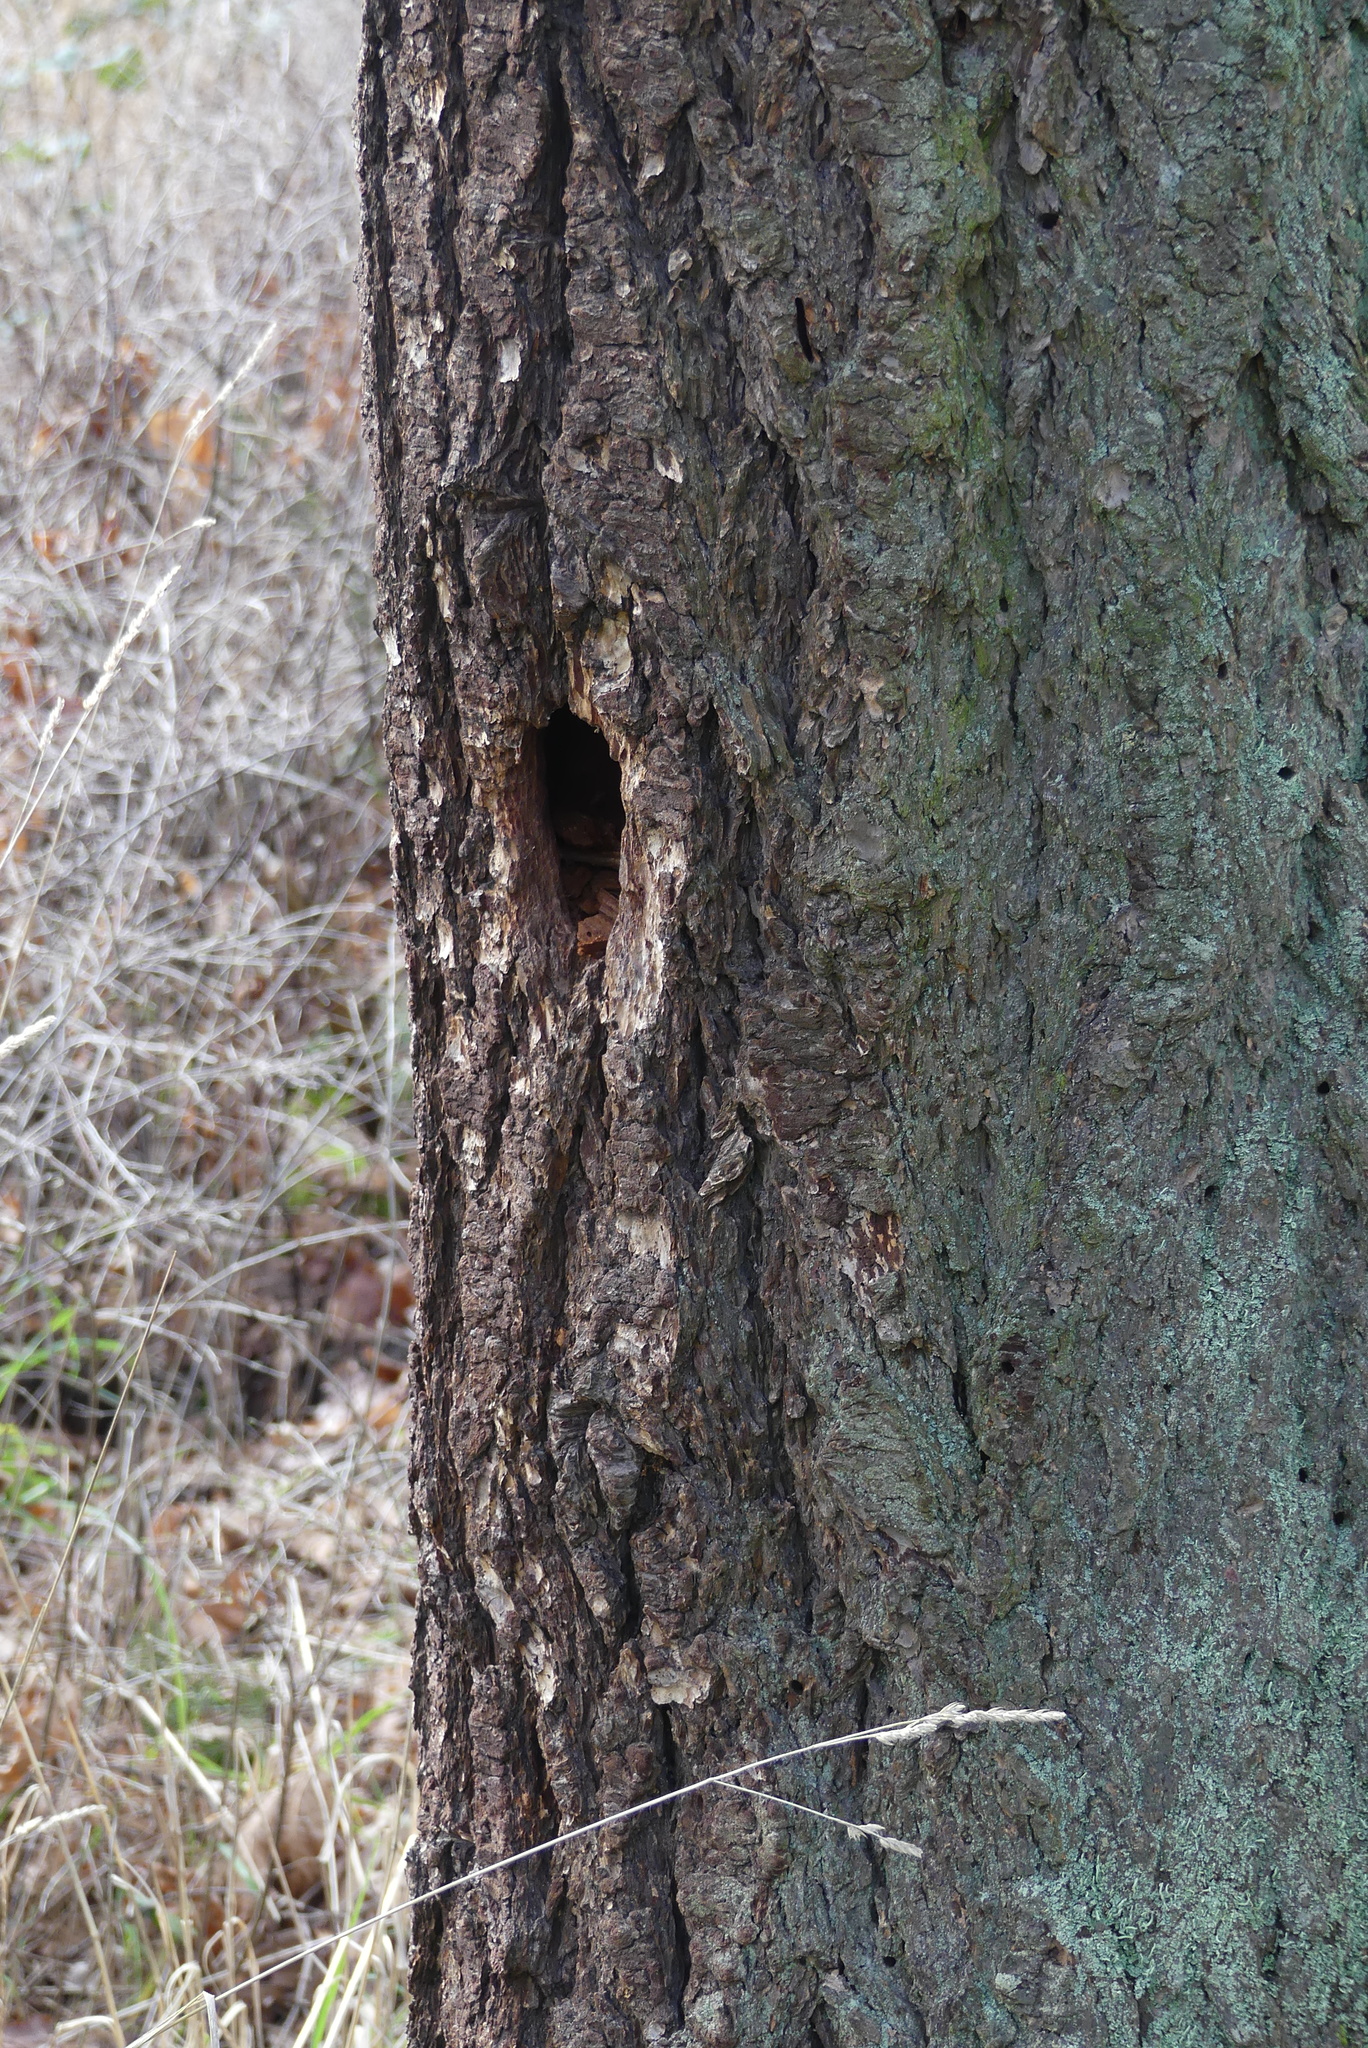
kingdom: Animalia
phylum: Chordata
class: Aves
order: Piciformes
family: Picidae
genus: Dryocopus
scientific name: Dryocopus pileatus
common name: Pileated woodpecker
